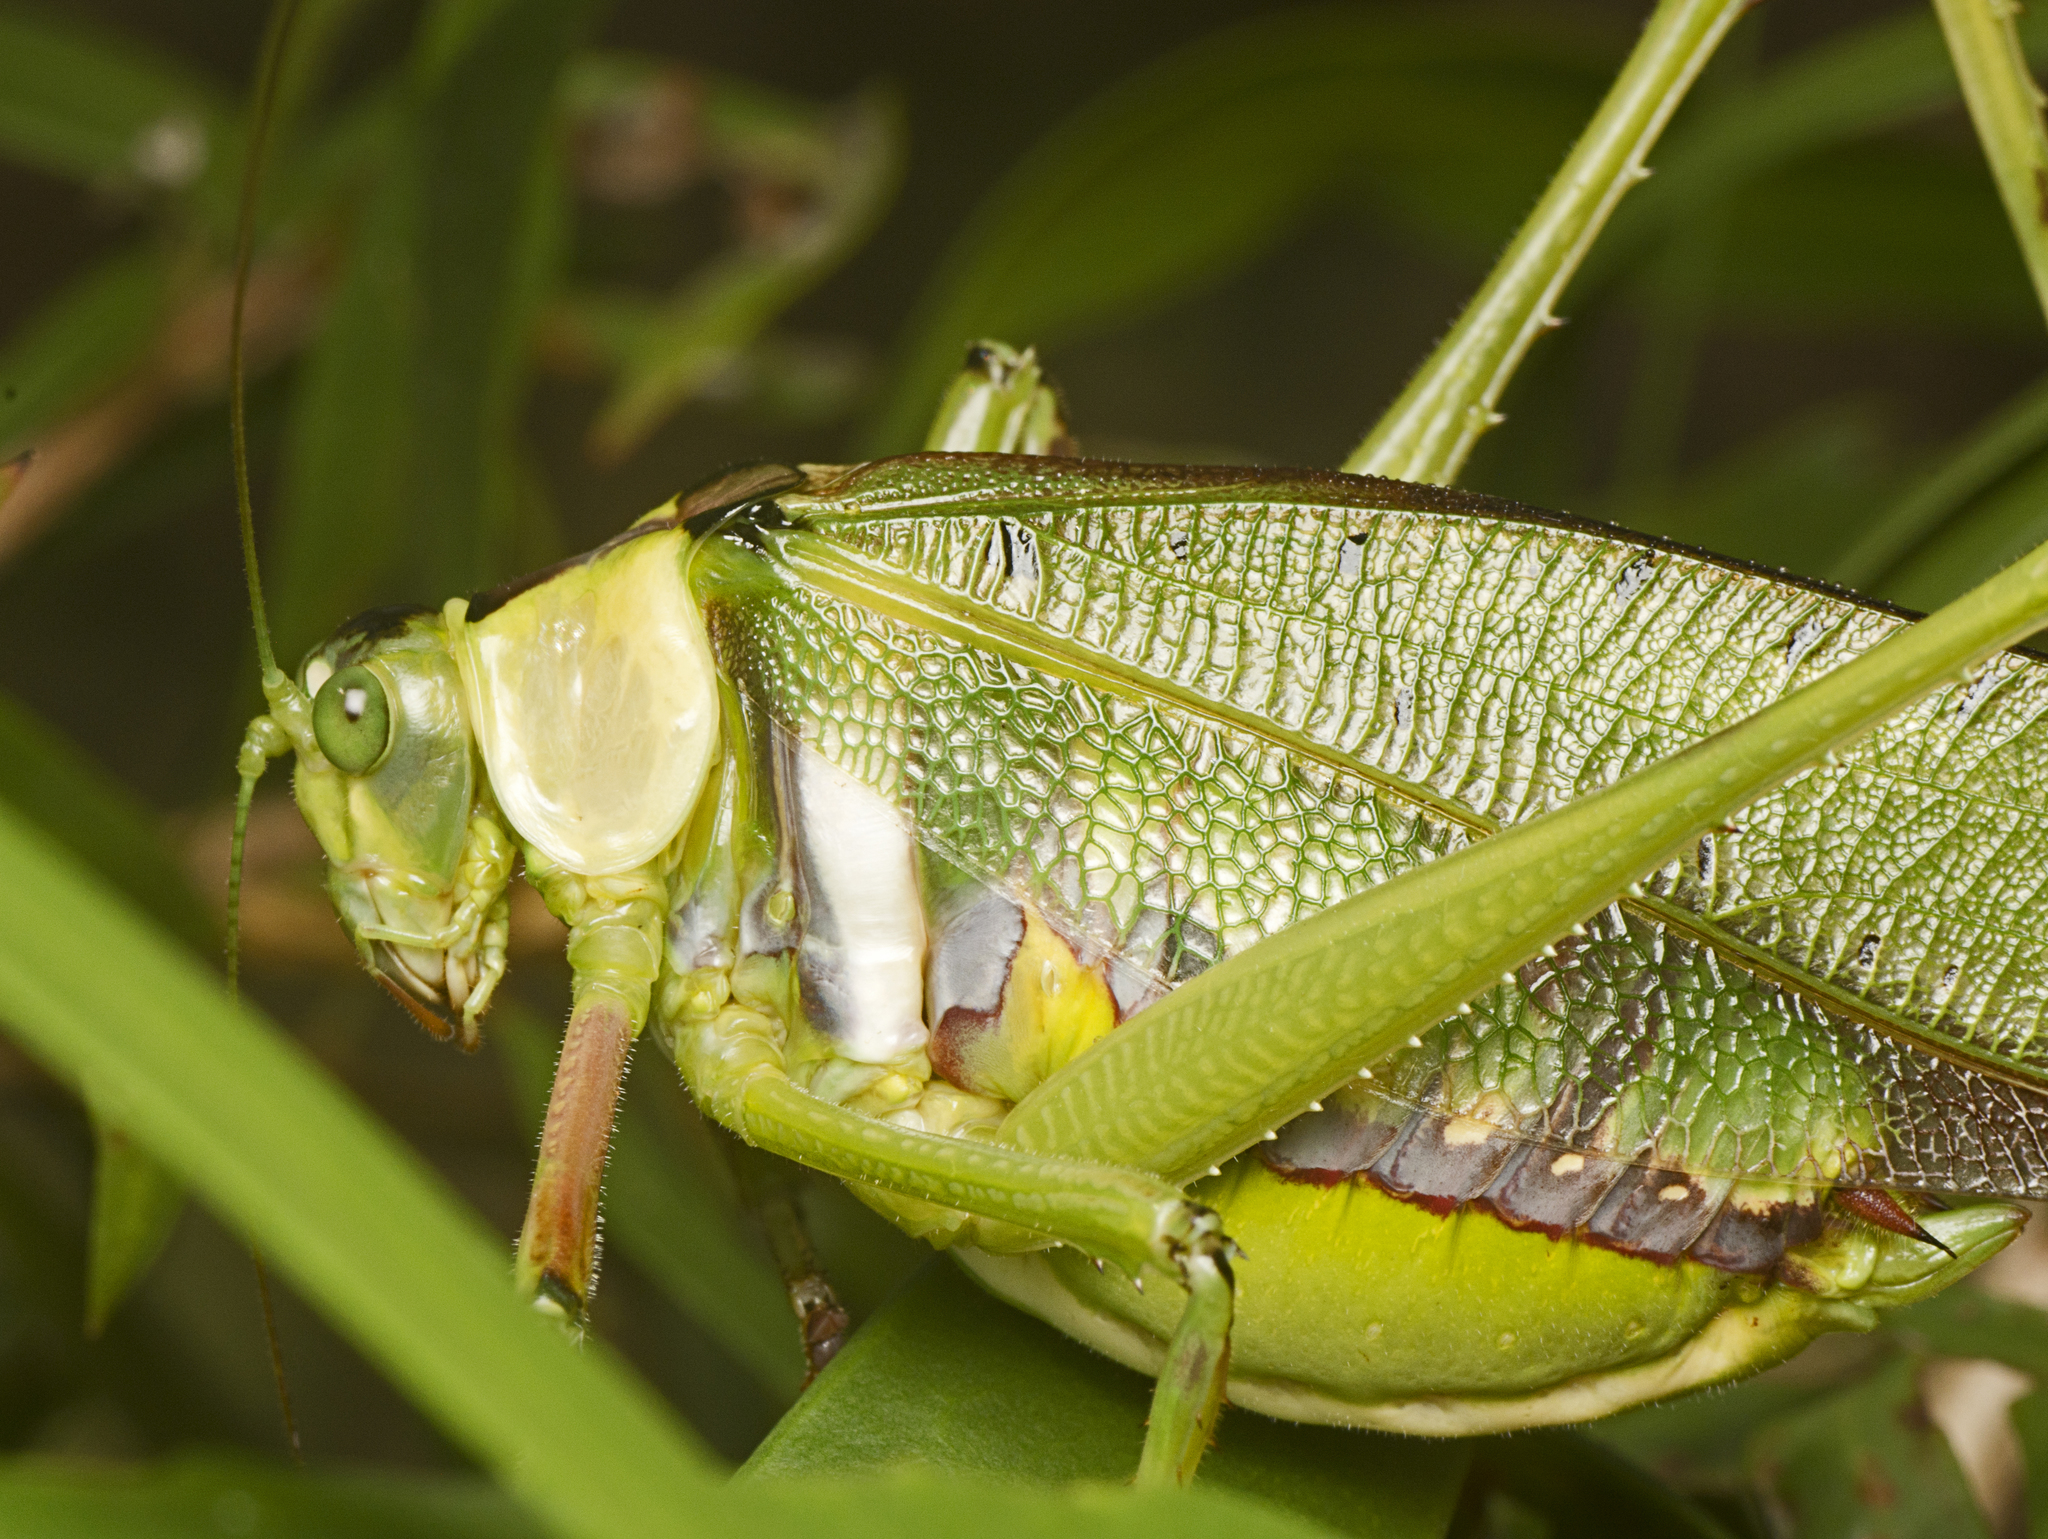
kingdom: Animalia
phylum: Arthropoda
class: Insecta
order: Orthoptera
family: Tettigoniidae
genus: Ephippitytha
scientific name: Ephippitytha trigintiduoguttata
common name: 32-spotted katydid
